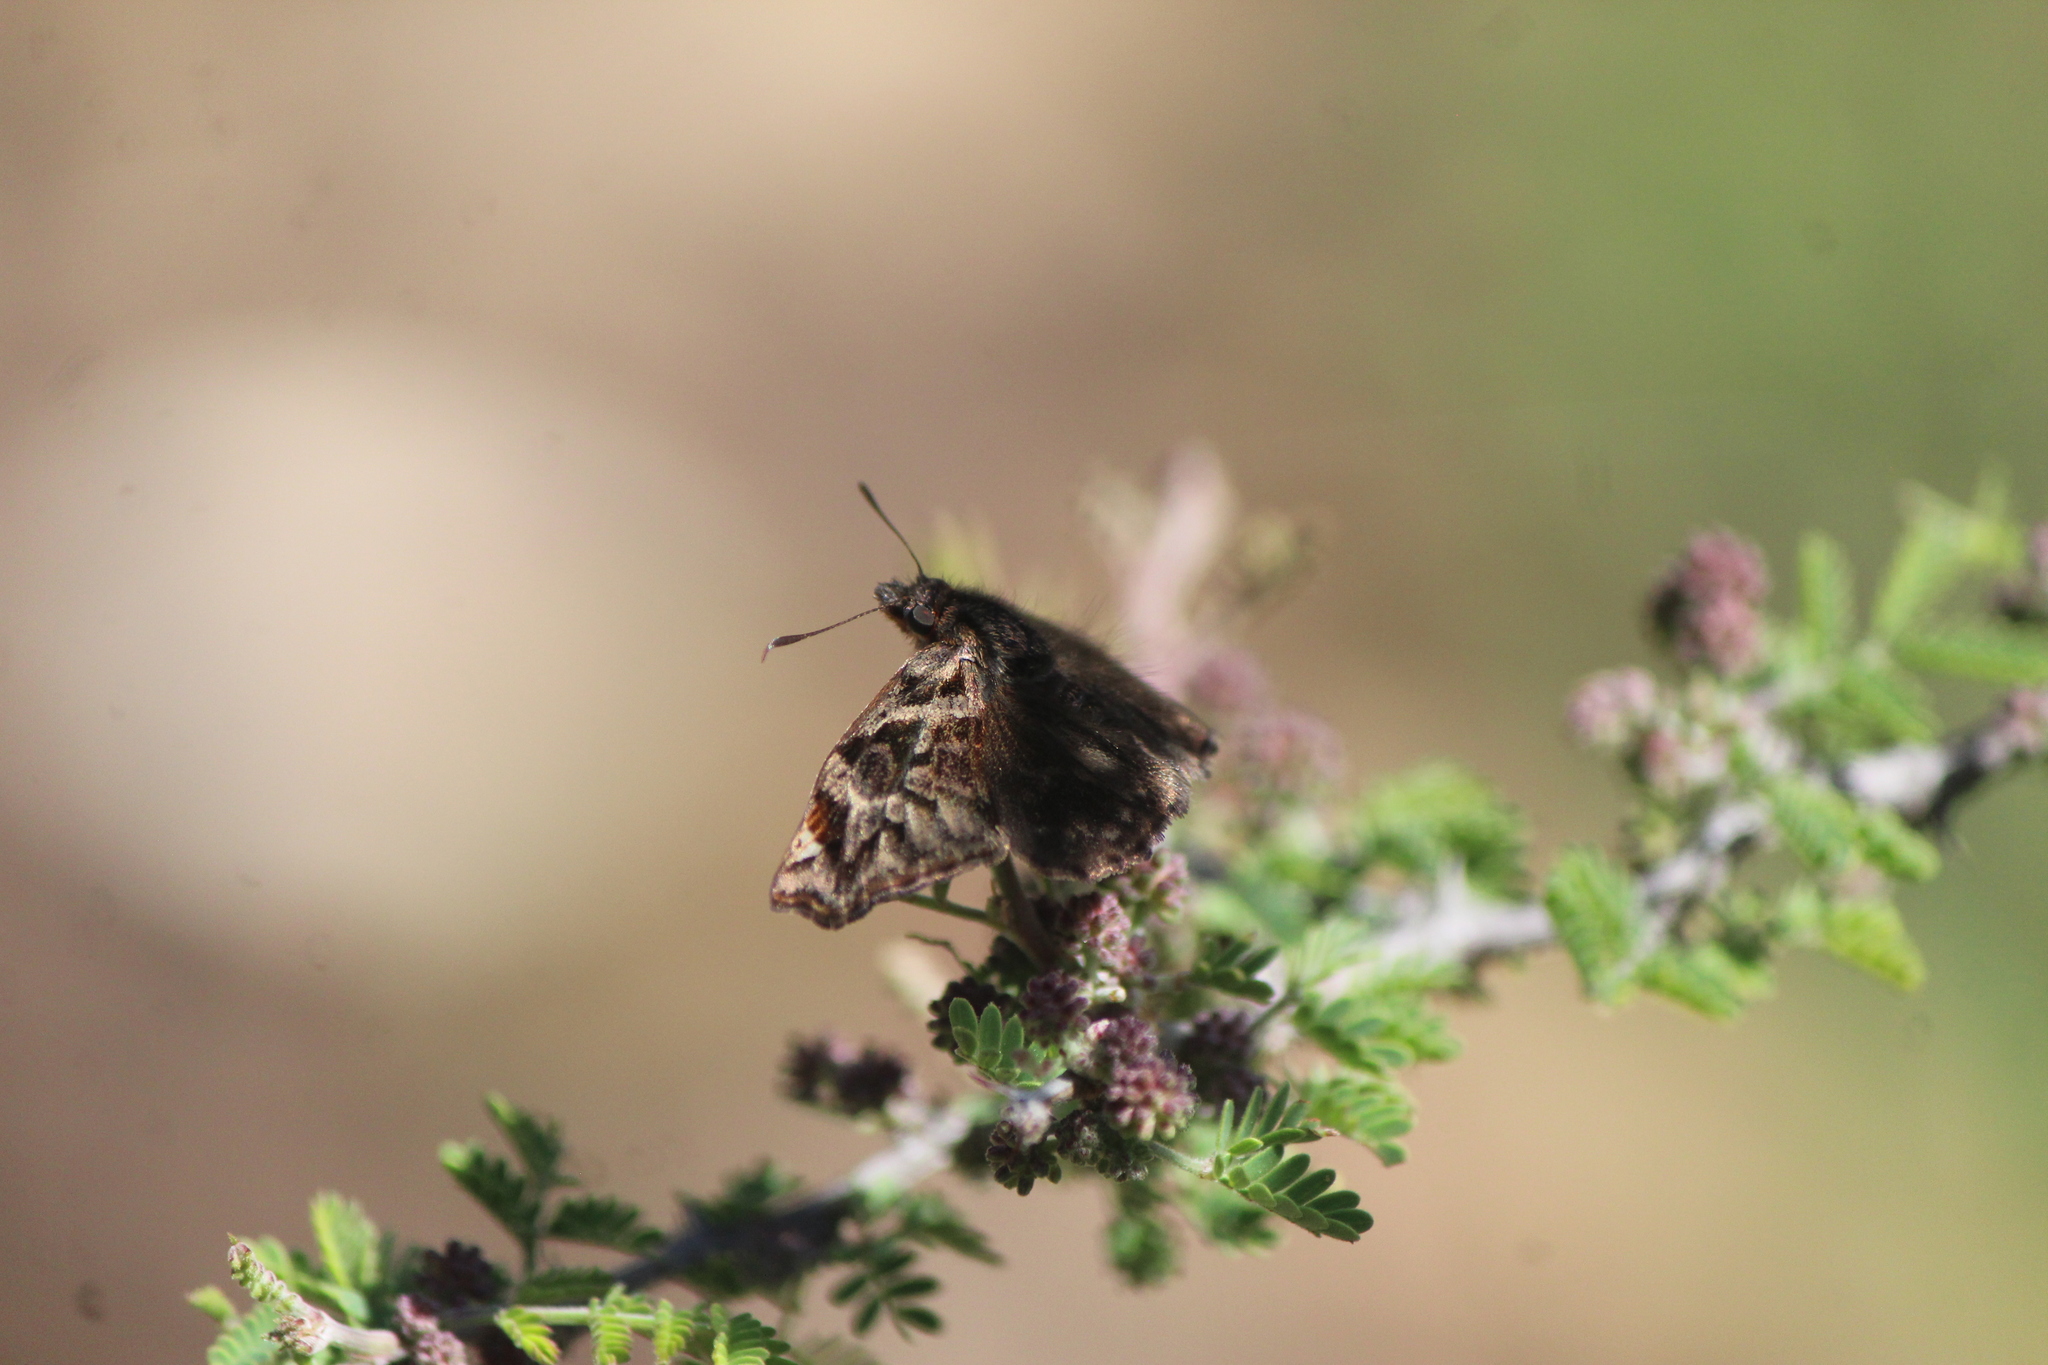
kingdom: Animalia
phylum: Arthropoda
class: Insecta
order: Lepidoptera
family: Hesperiidae
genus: Noctuana
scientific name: Noctuana stator
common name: Red-studded skipper
